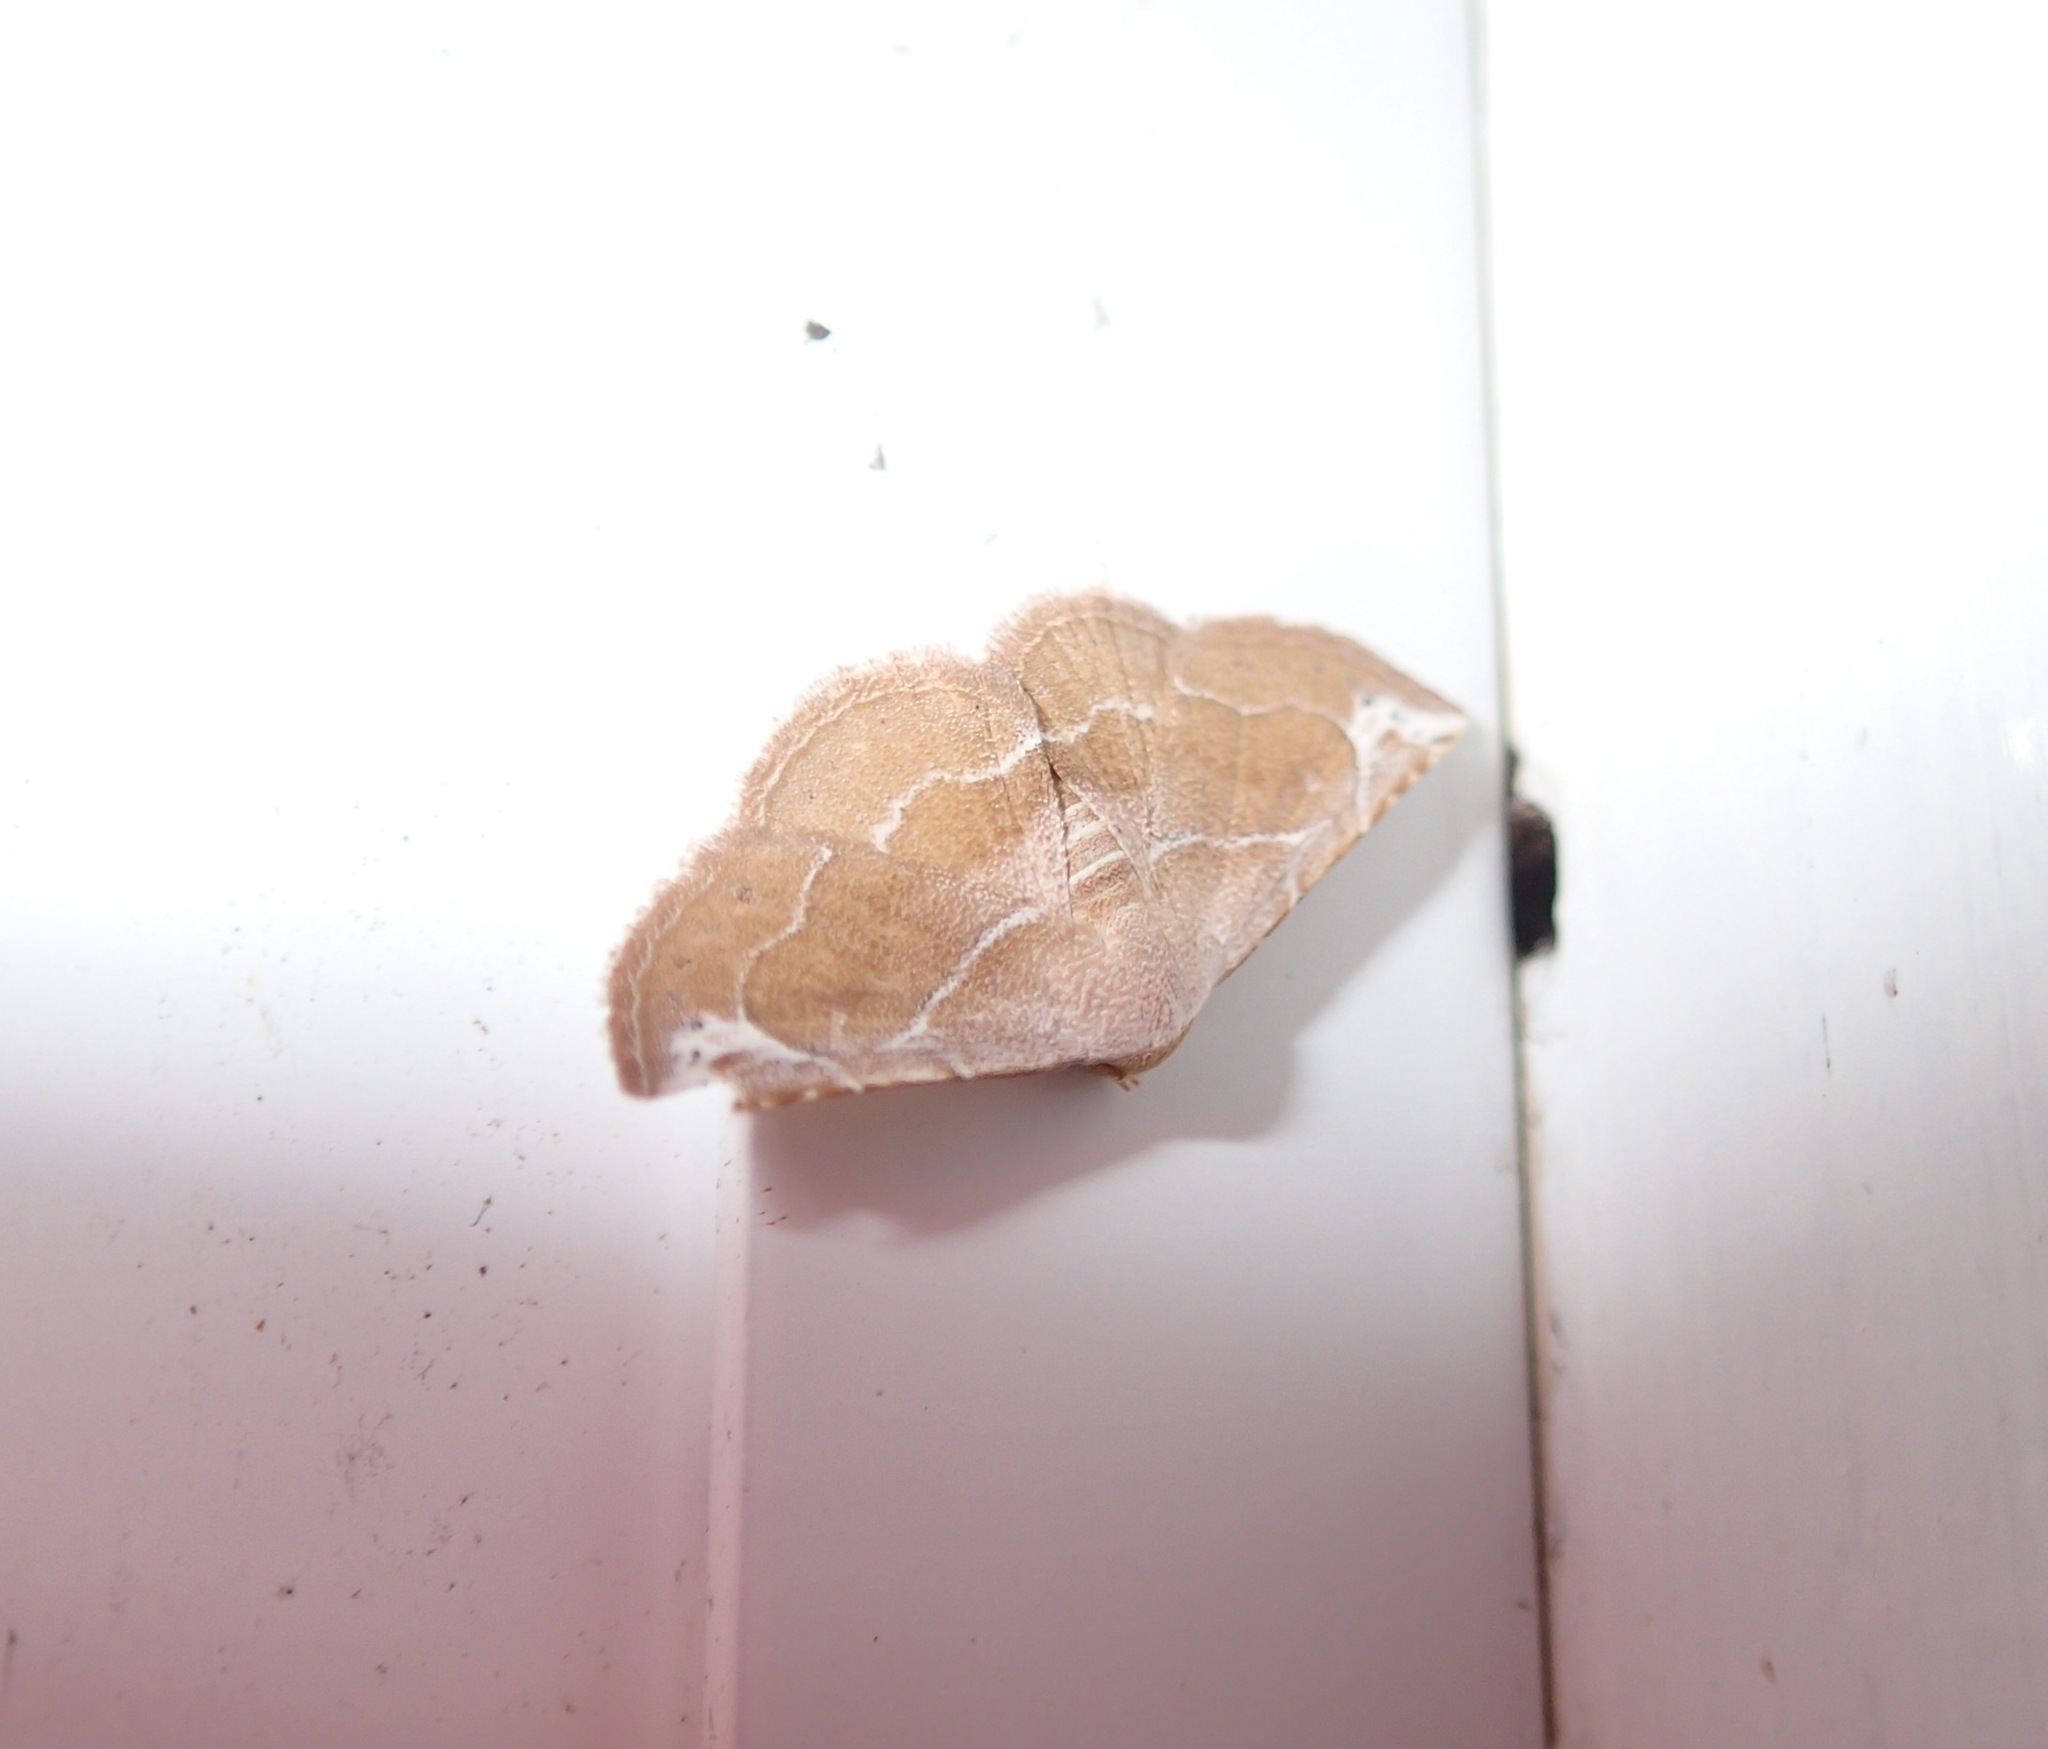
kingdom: Animalia
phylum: Arthropoda
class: Insecta
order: Lepidoptera
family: Noctuidae
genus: Eublemma
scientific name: Eublemma rubra
